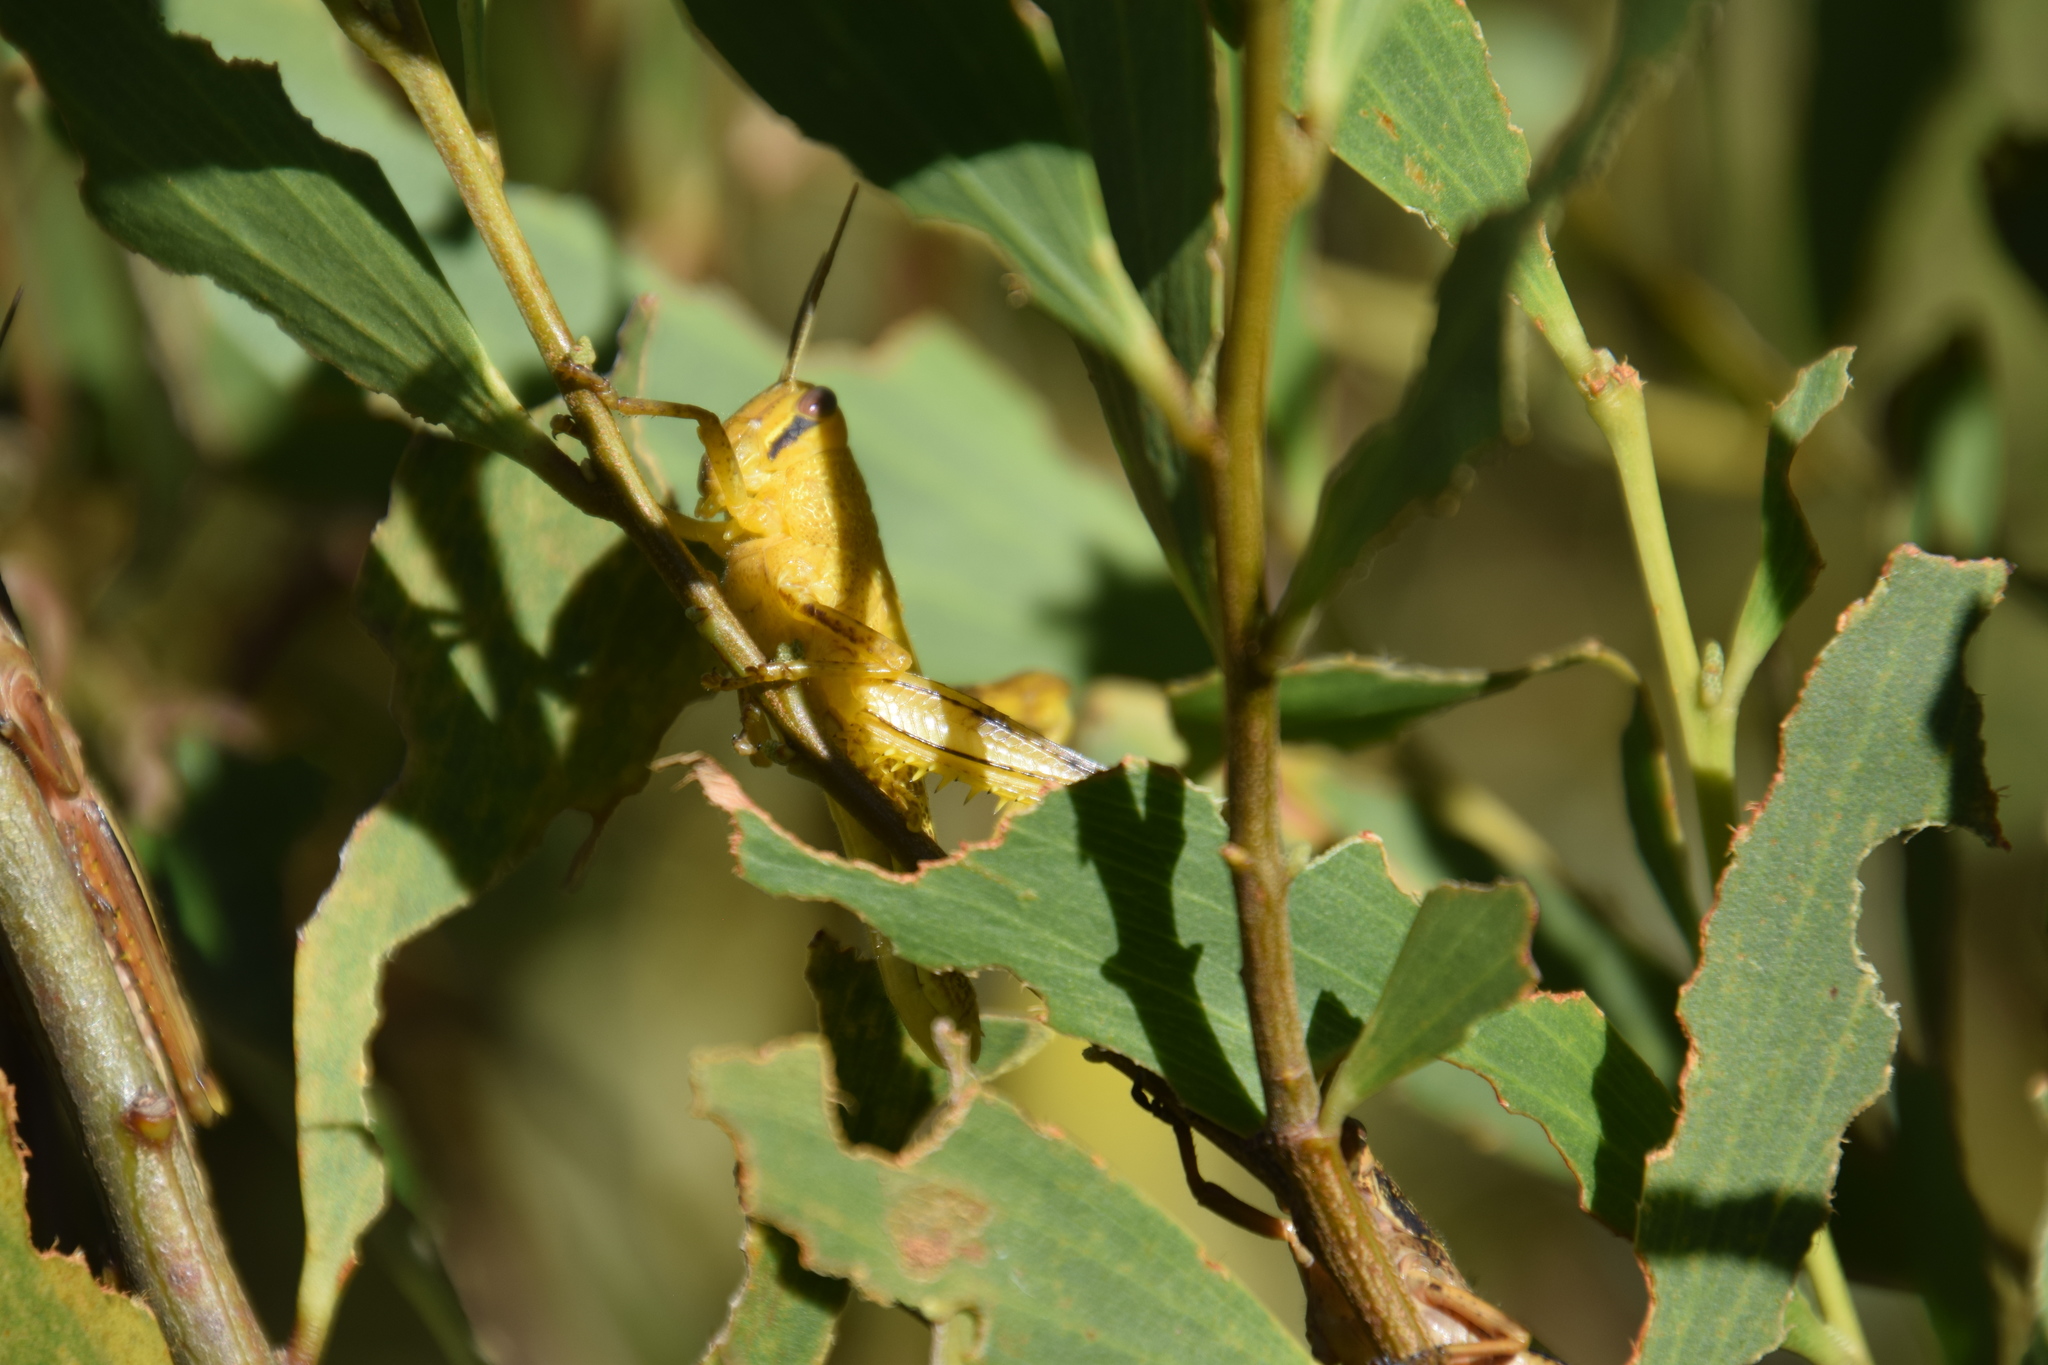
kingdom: Animalia
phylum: Arthropoda
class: Insecta
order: Orthoptera
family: Acrididae
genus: Austracris
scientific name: Austracris guttulosa
